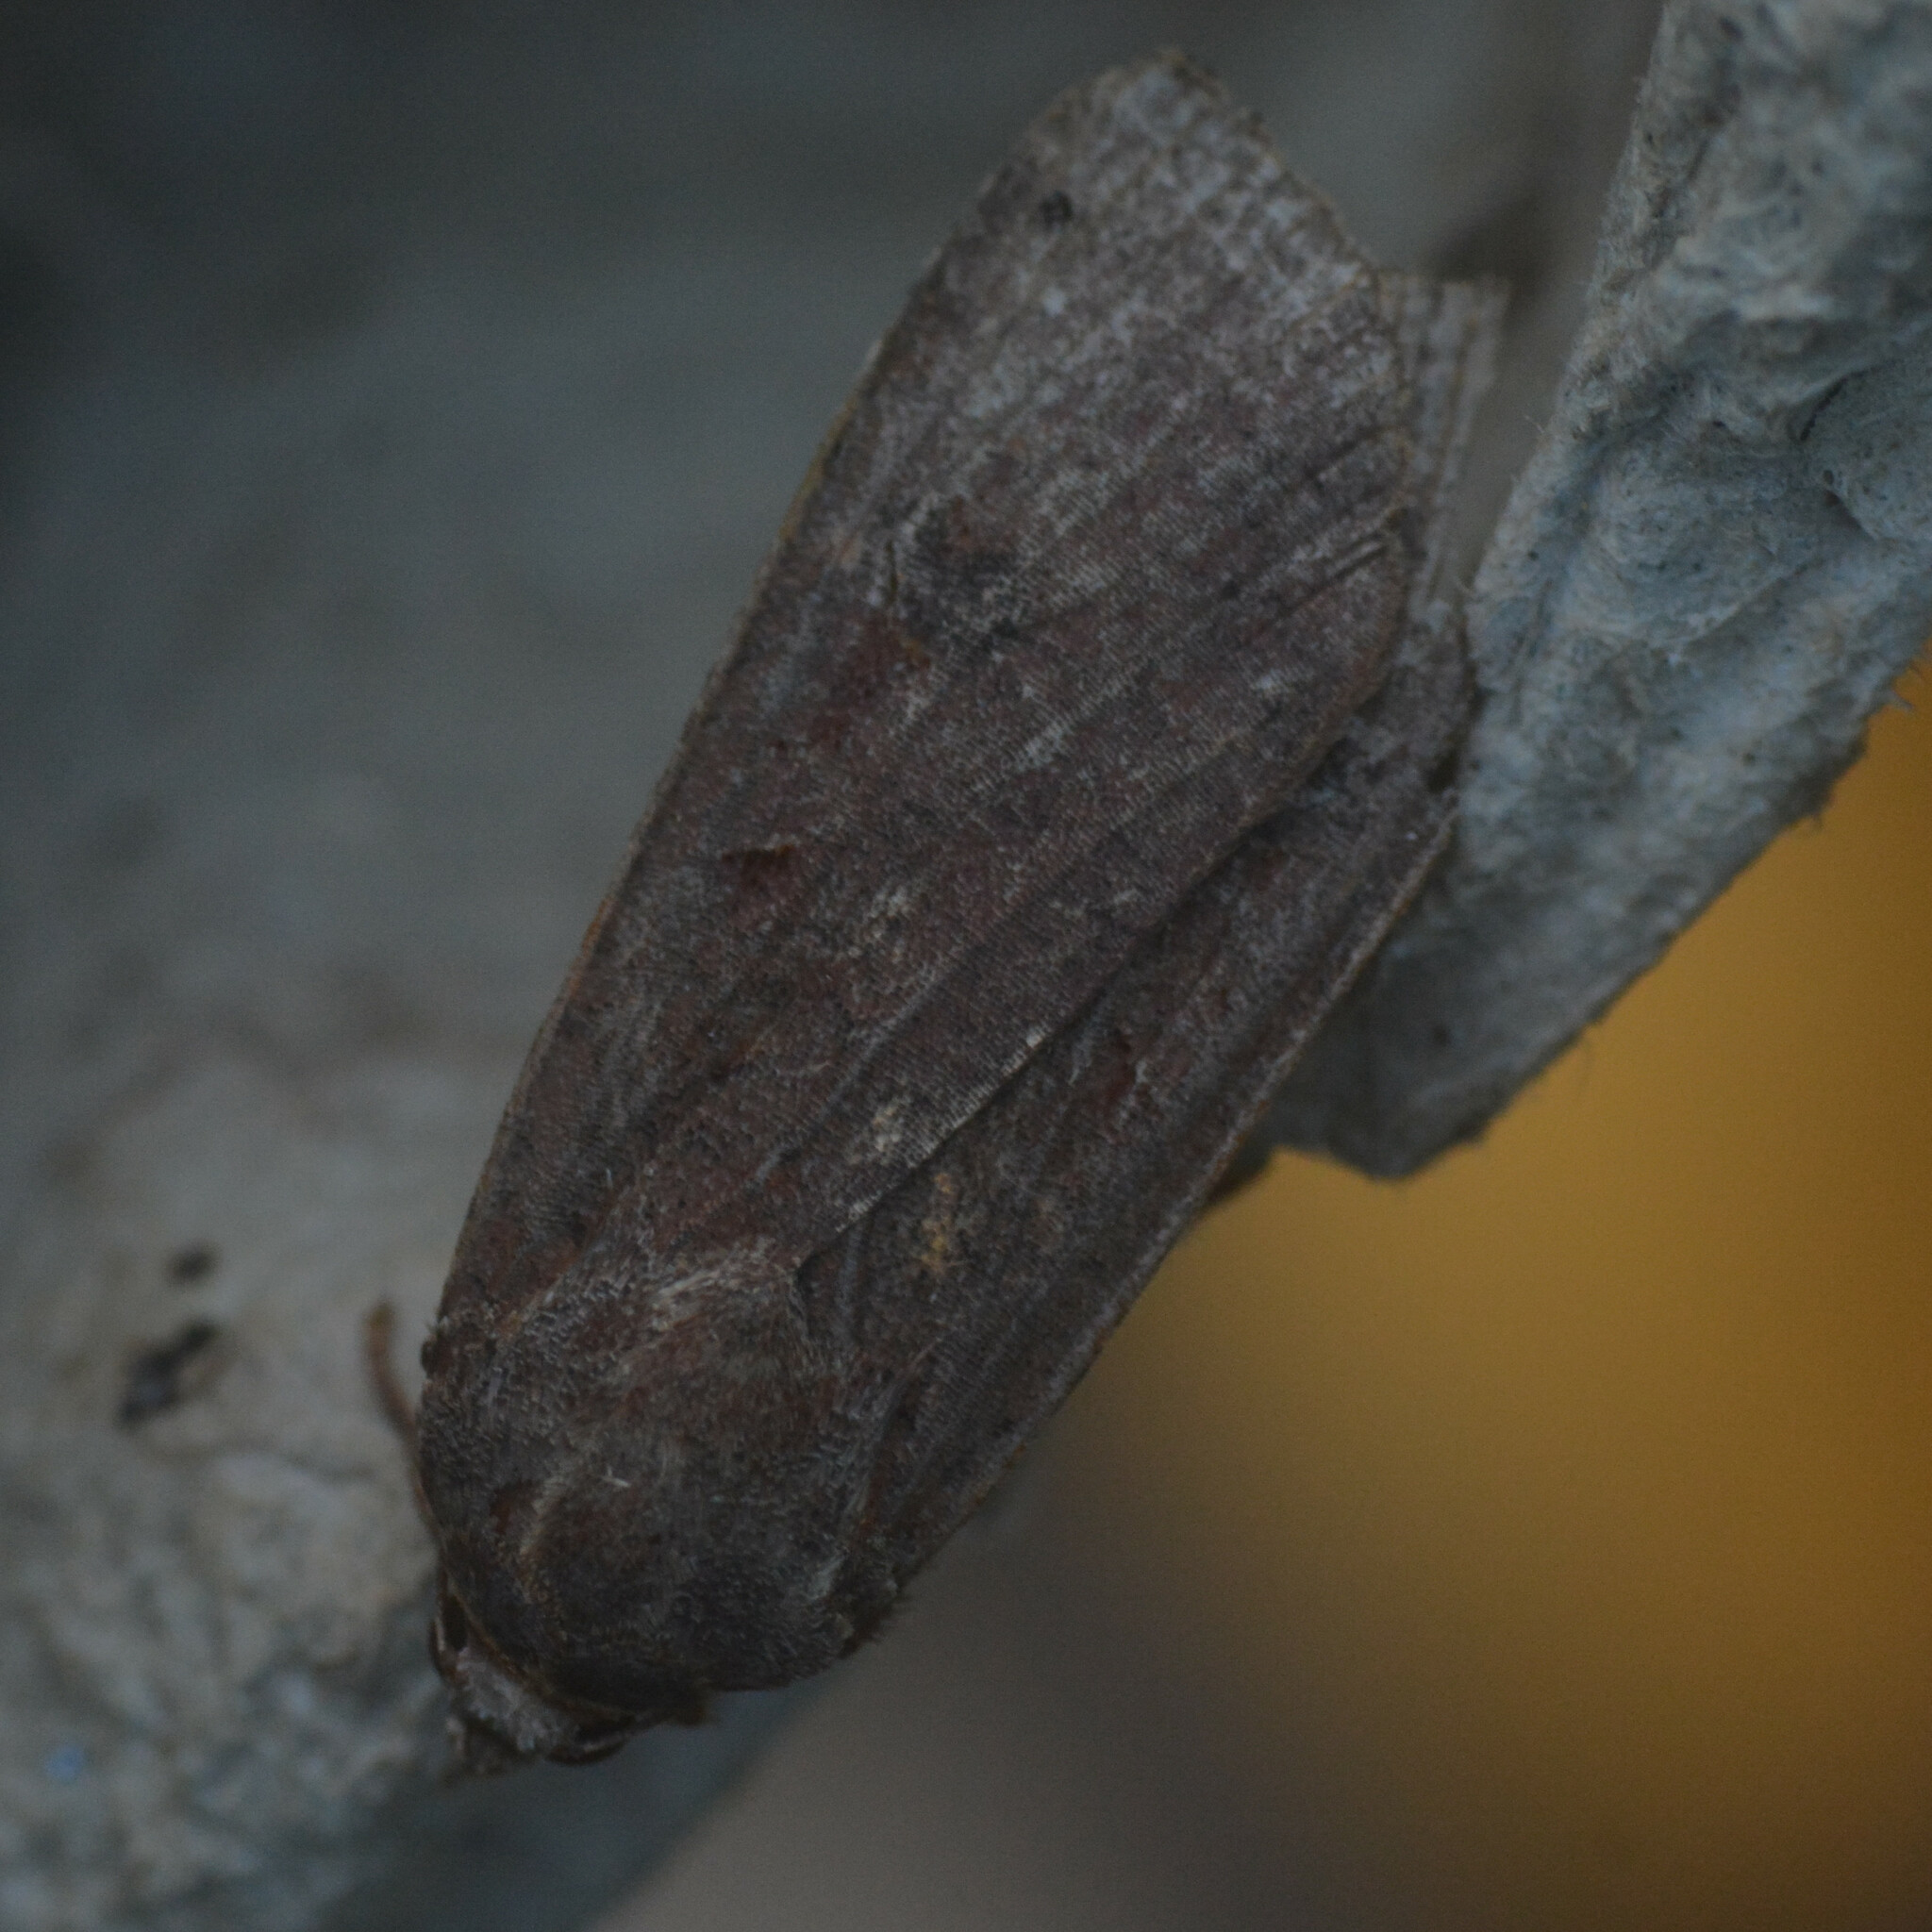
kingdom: Animalia
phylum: Arthropoda
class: Insecta
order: Lepidoptera
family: Noctuidae
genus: Noctua
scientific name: Noctua pronuba
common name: Large yellow underwing
